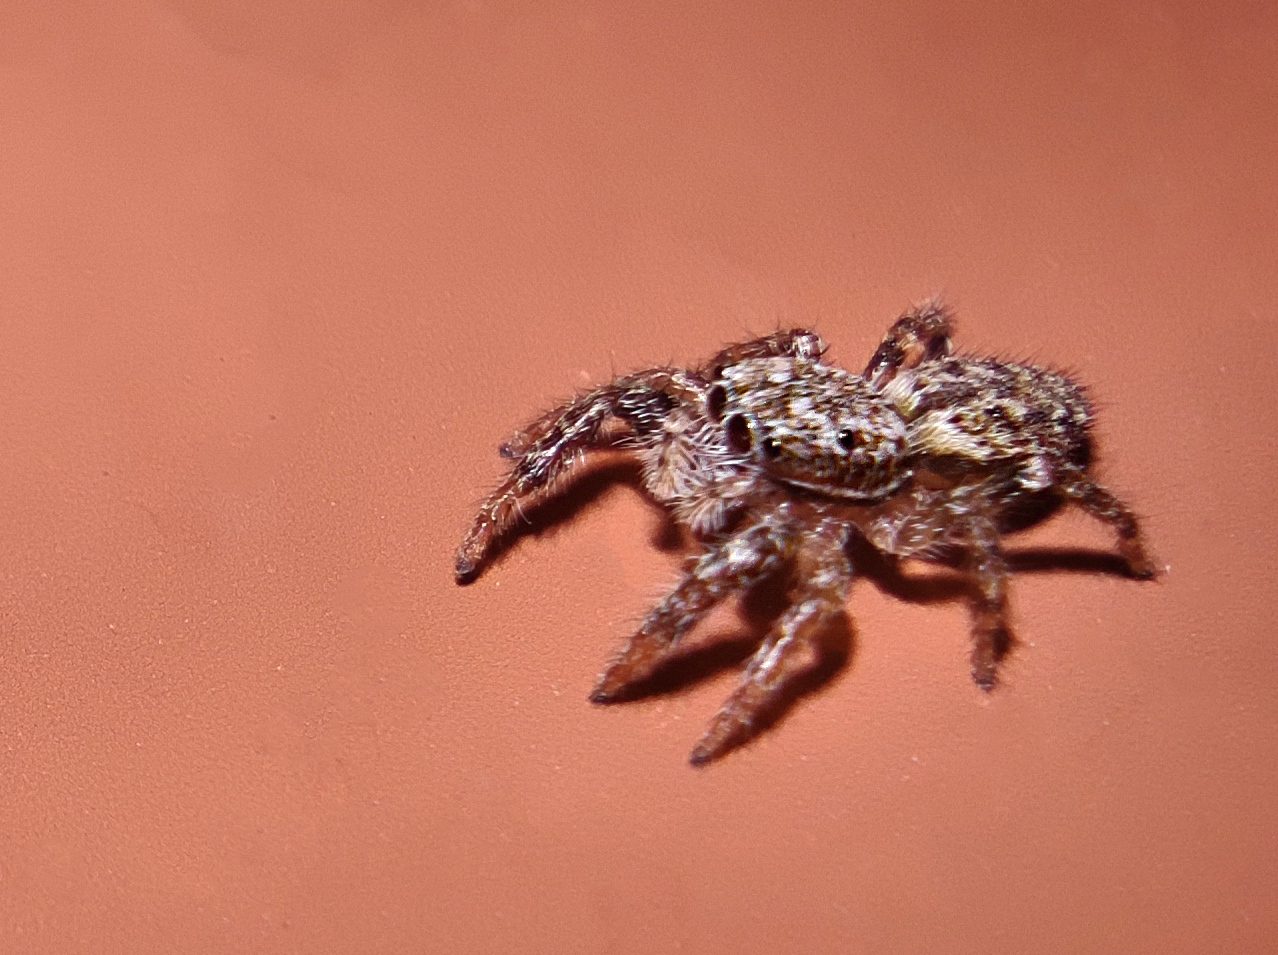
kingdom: Animalia
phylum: Arthropoda
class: Arachnida
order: Araneae
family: Salticidae
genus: Marpissa
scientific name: Marpissa muscosa
